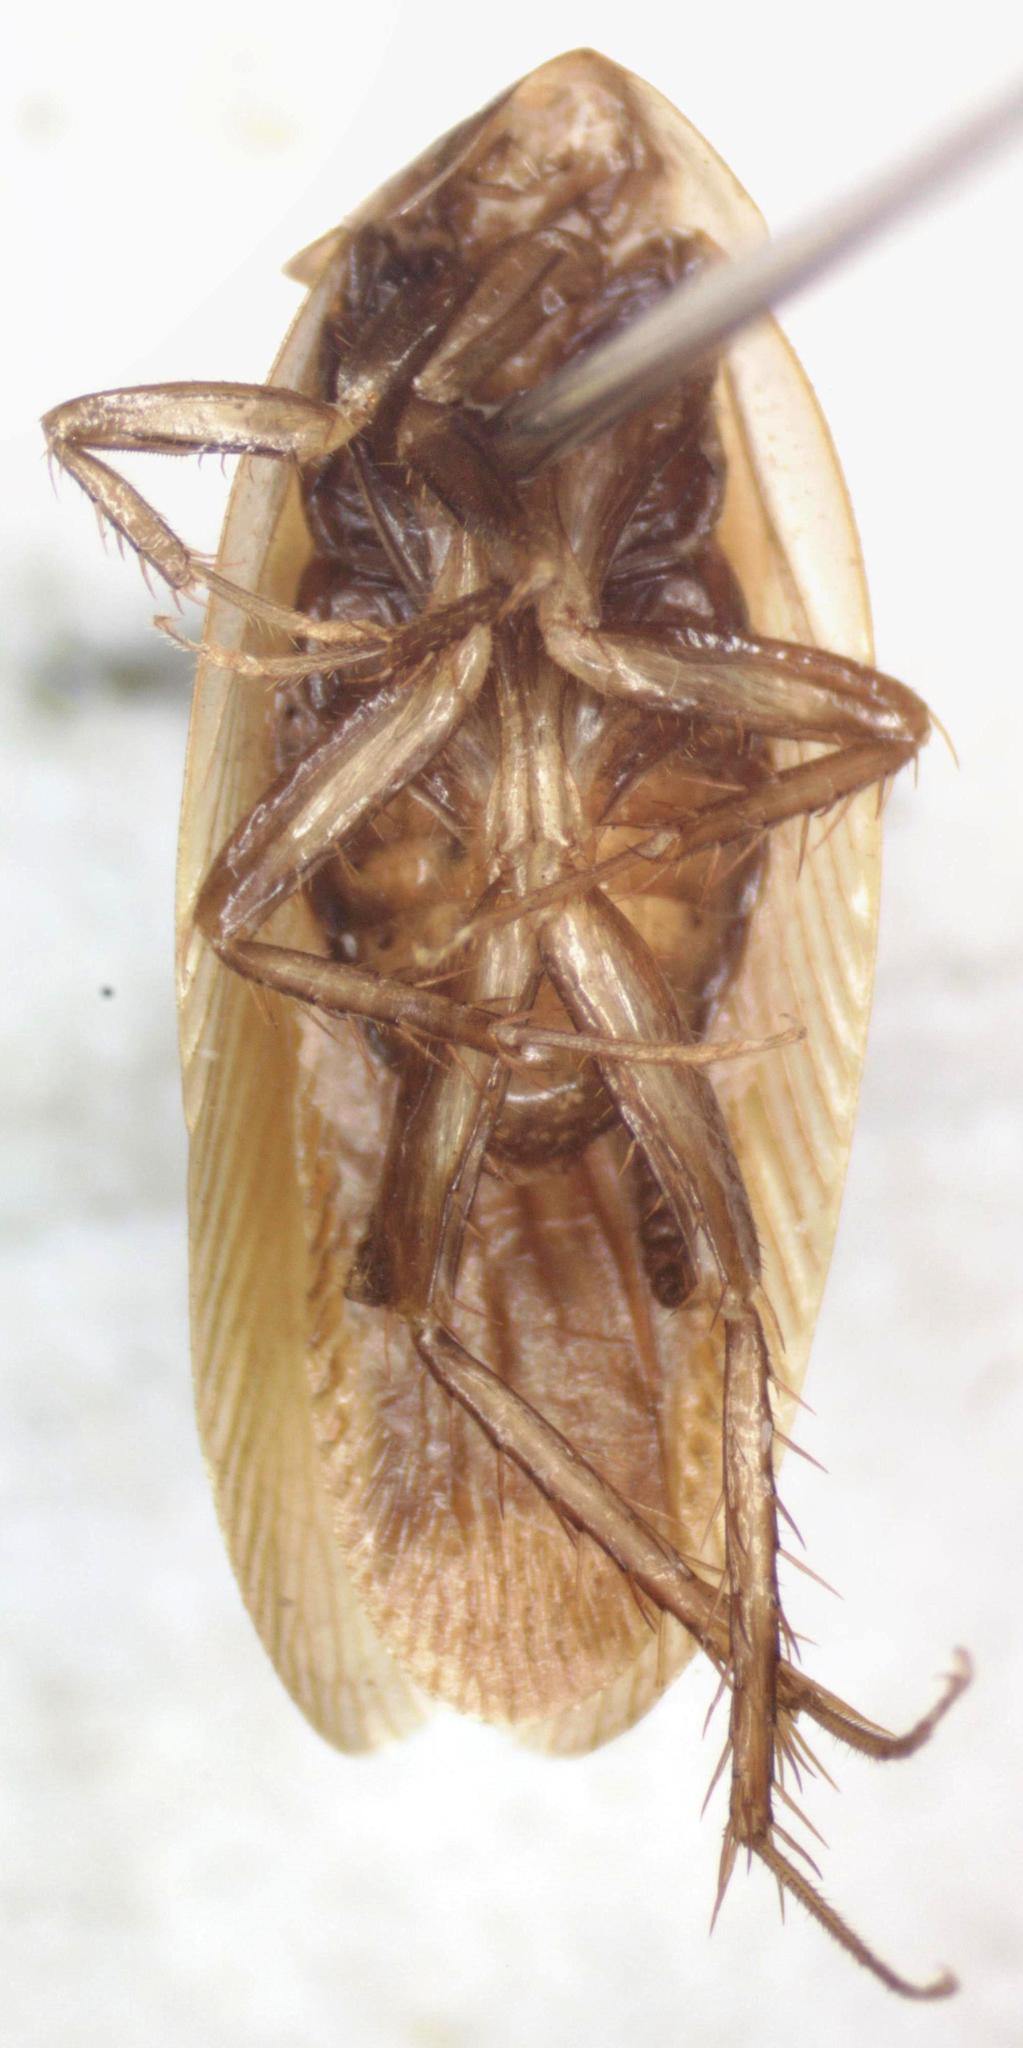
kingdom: Animalia
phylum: Arthropoda
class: Insecta
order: Blattodea
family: Ectobiidae
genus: Rhytidometopum
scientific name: Rhytidometopum megalopterum
